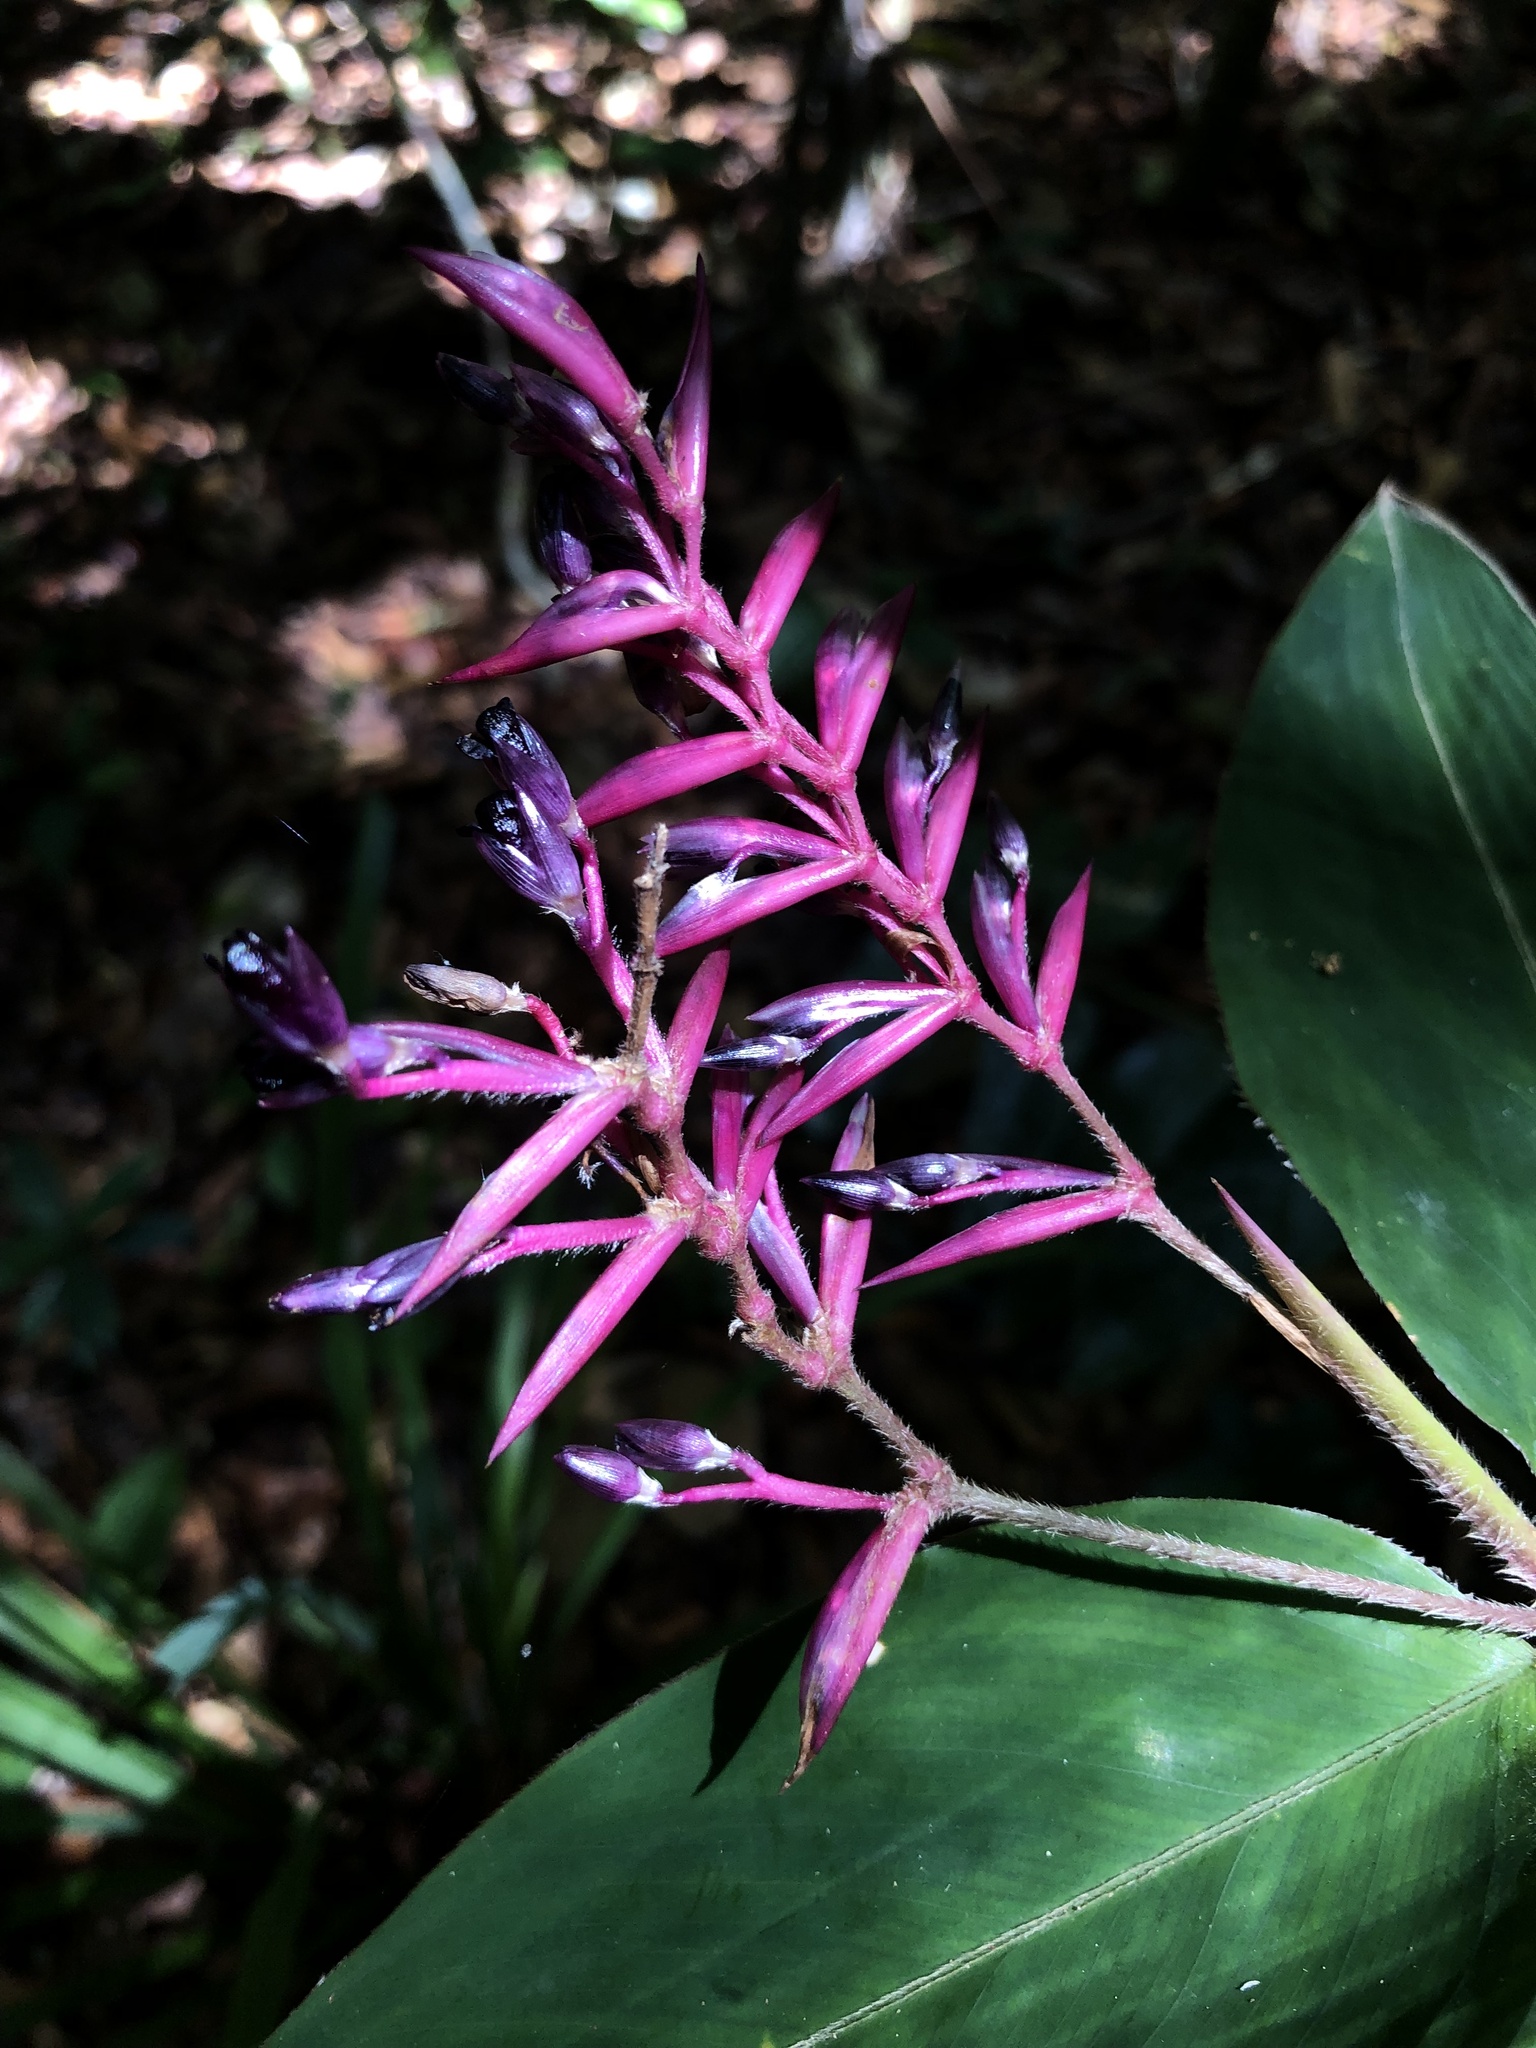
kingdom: Plantae
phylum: Tracheophyta
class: Liliopsida
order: Zingiberales
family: Marantaceae
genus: Stromanthe
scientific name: Stromanthe porteana
